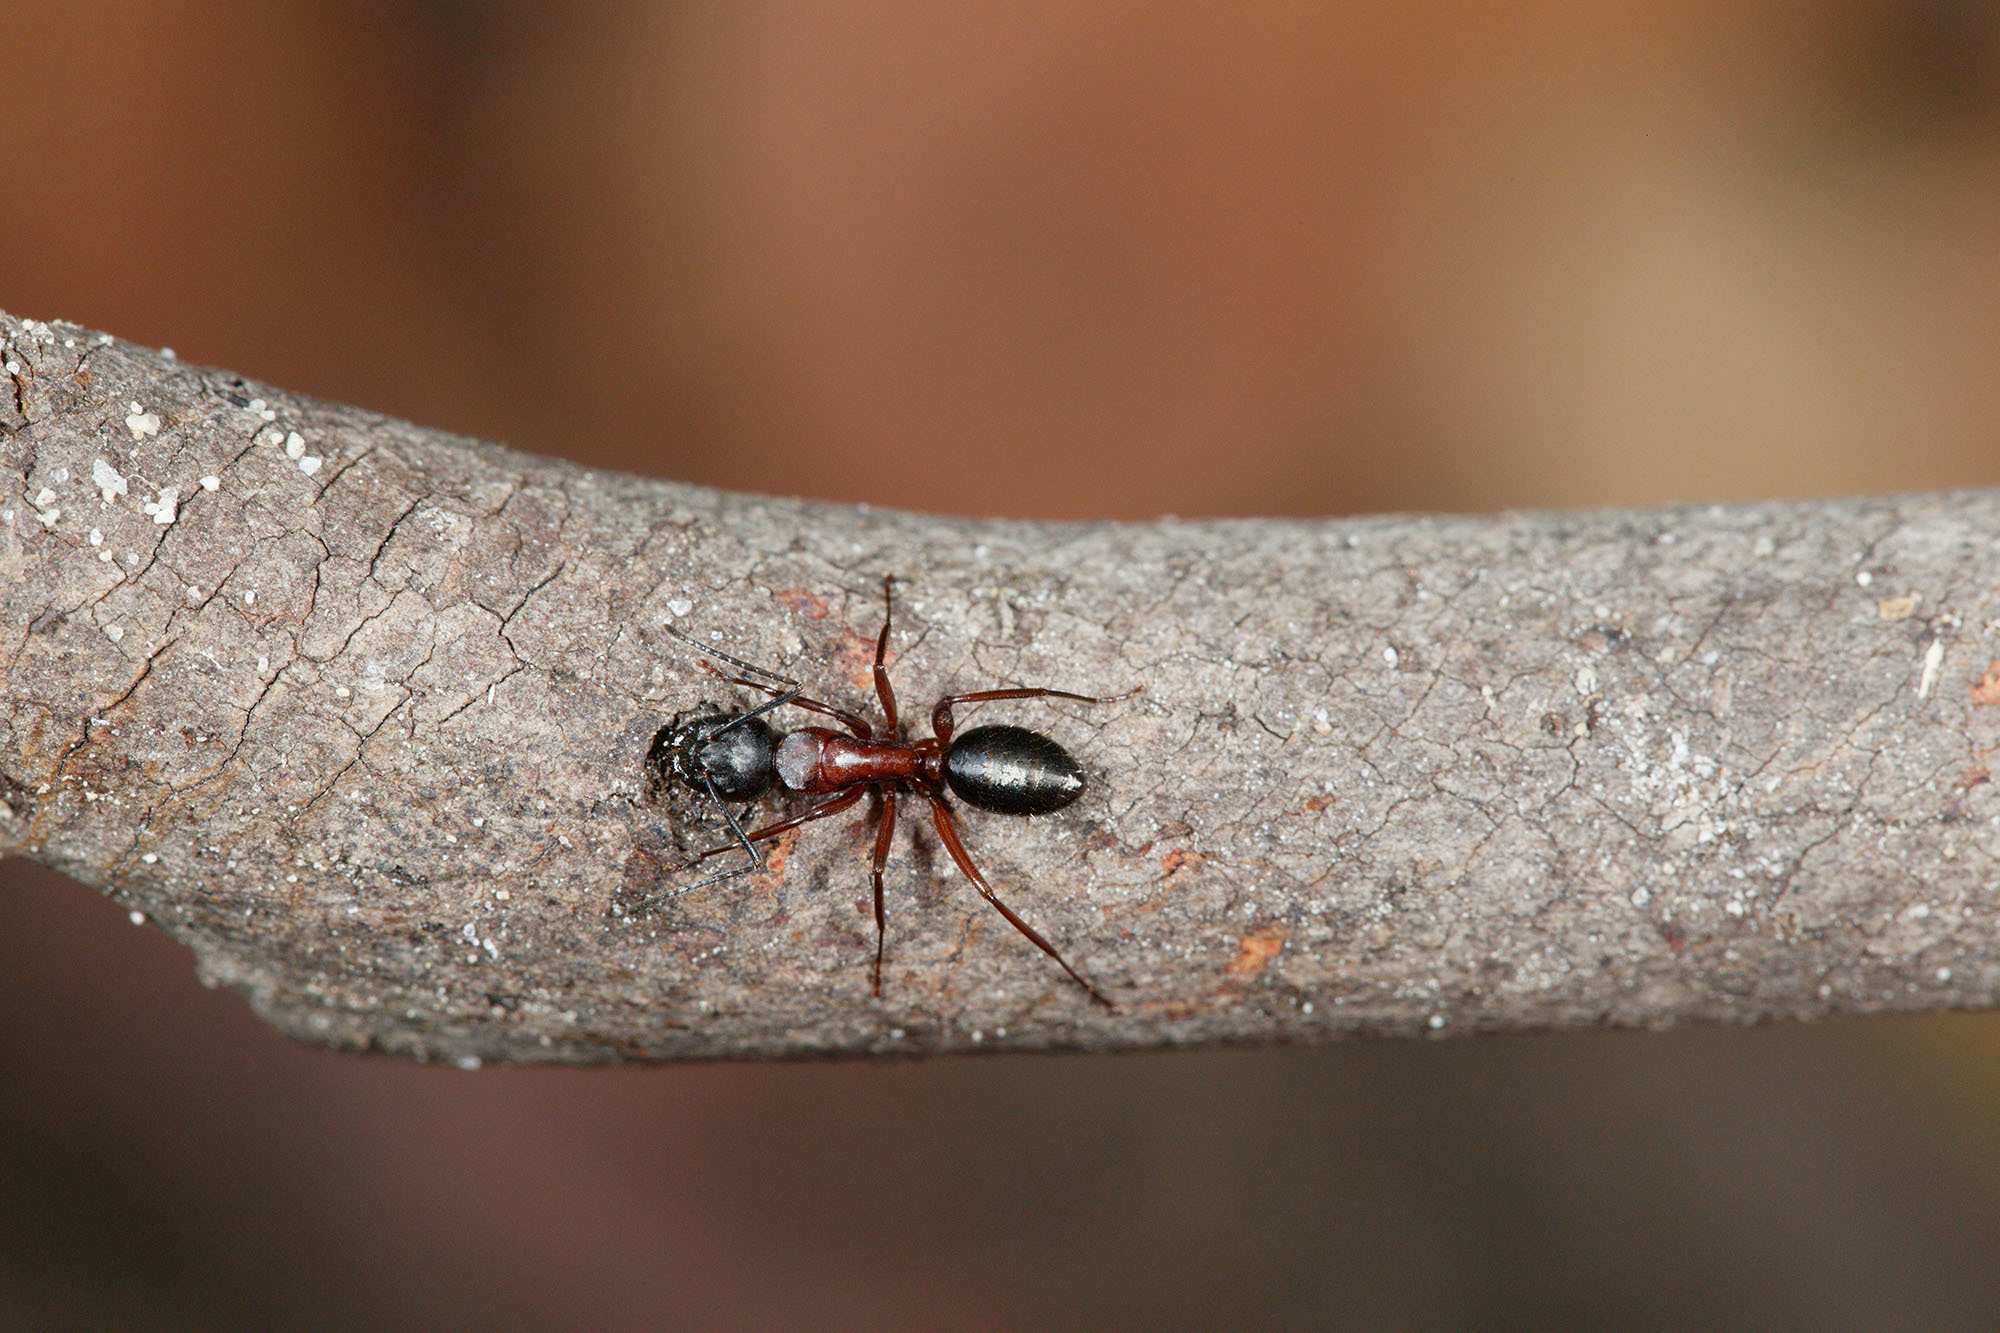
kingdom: Animalia
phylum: Arthropoda
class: Insecta
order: Hymenoptera
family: Formicidae
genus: Camponotus
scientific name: Camponotus innexus
